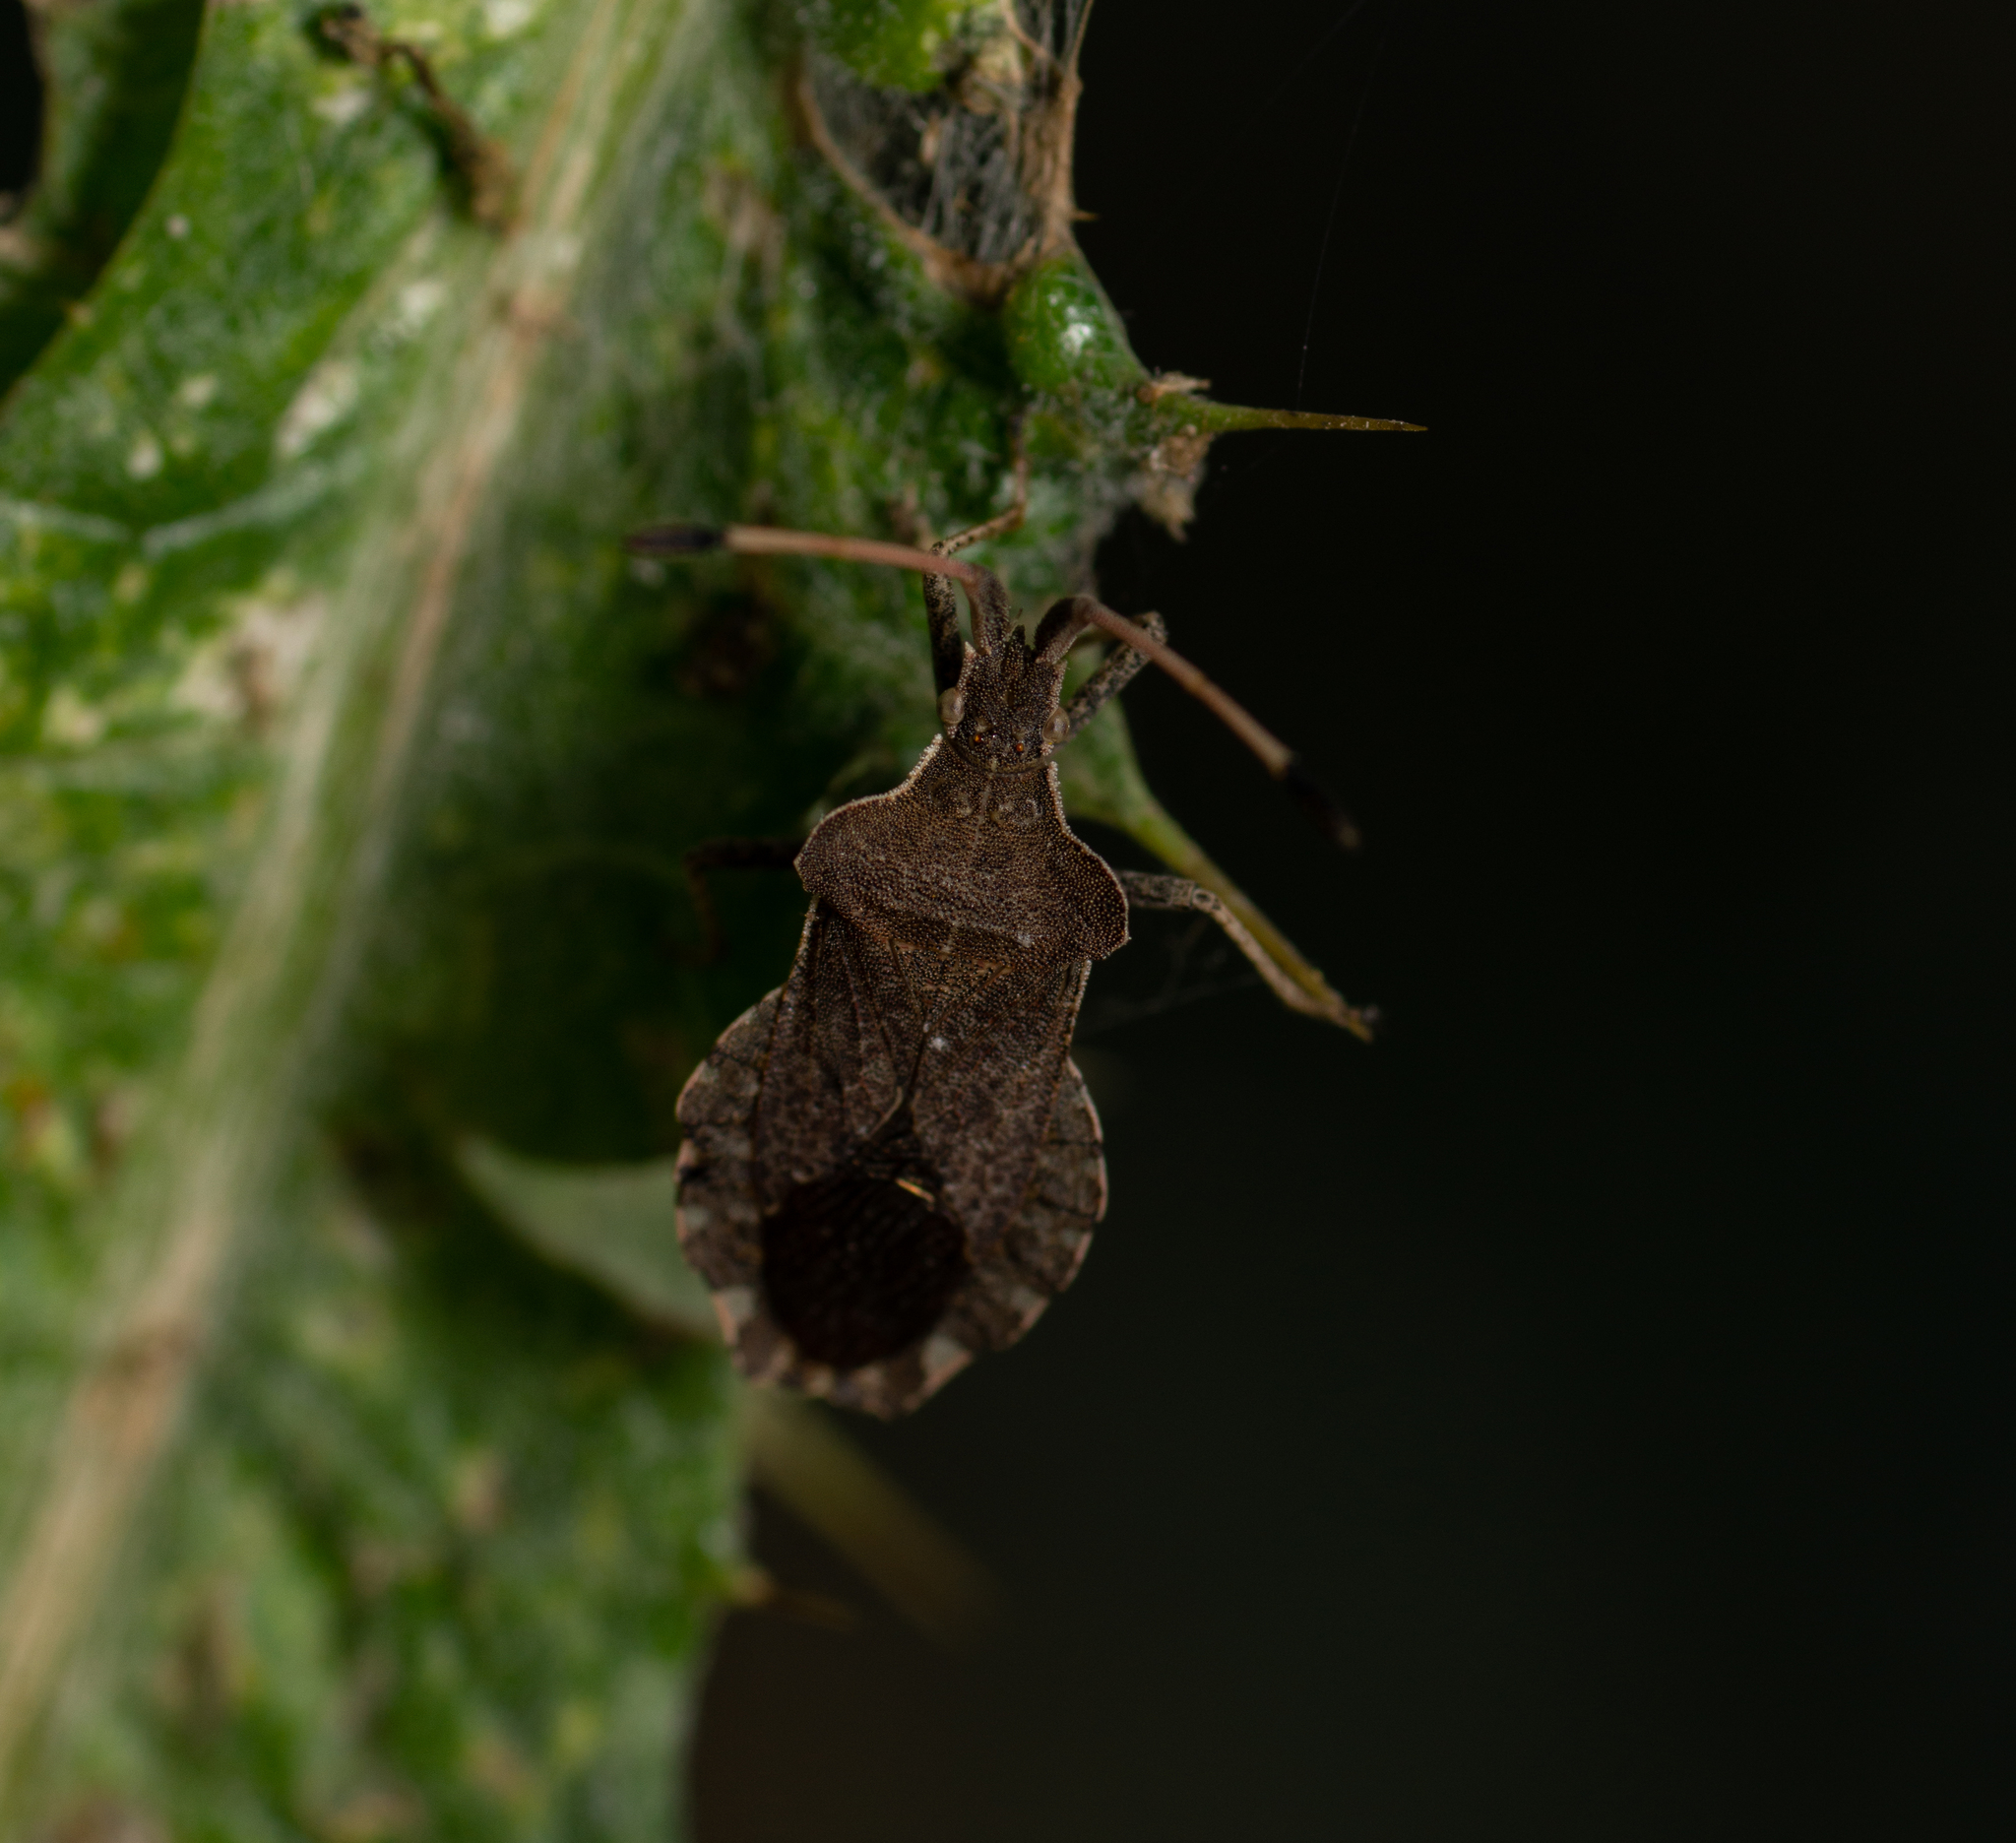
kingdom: Animalia
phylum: Arthropoda
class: Insecta
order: Hemiptera
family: Coreidae
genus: Enoplops
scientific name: Enoplops scapha
